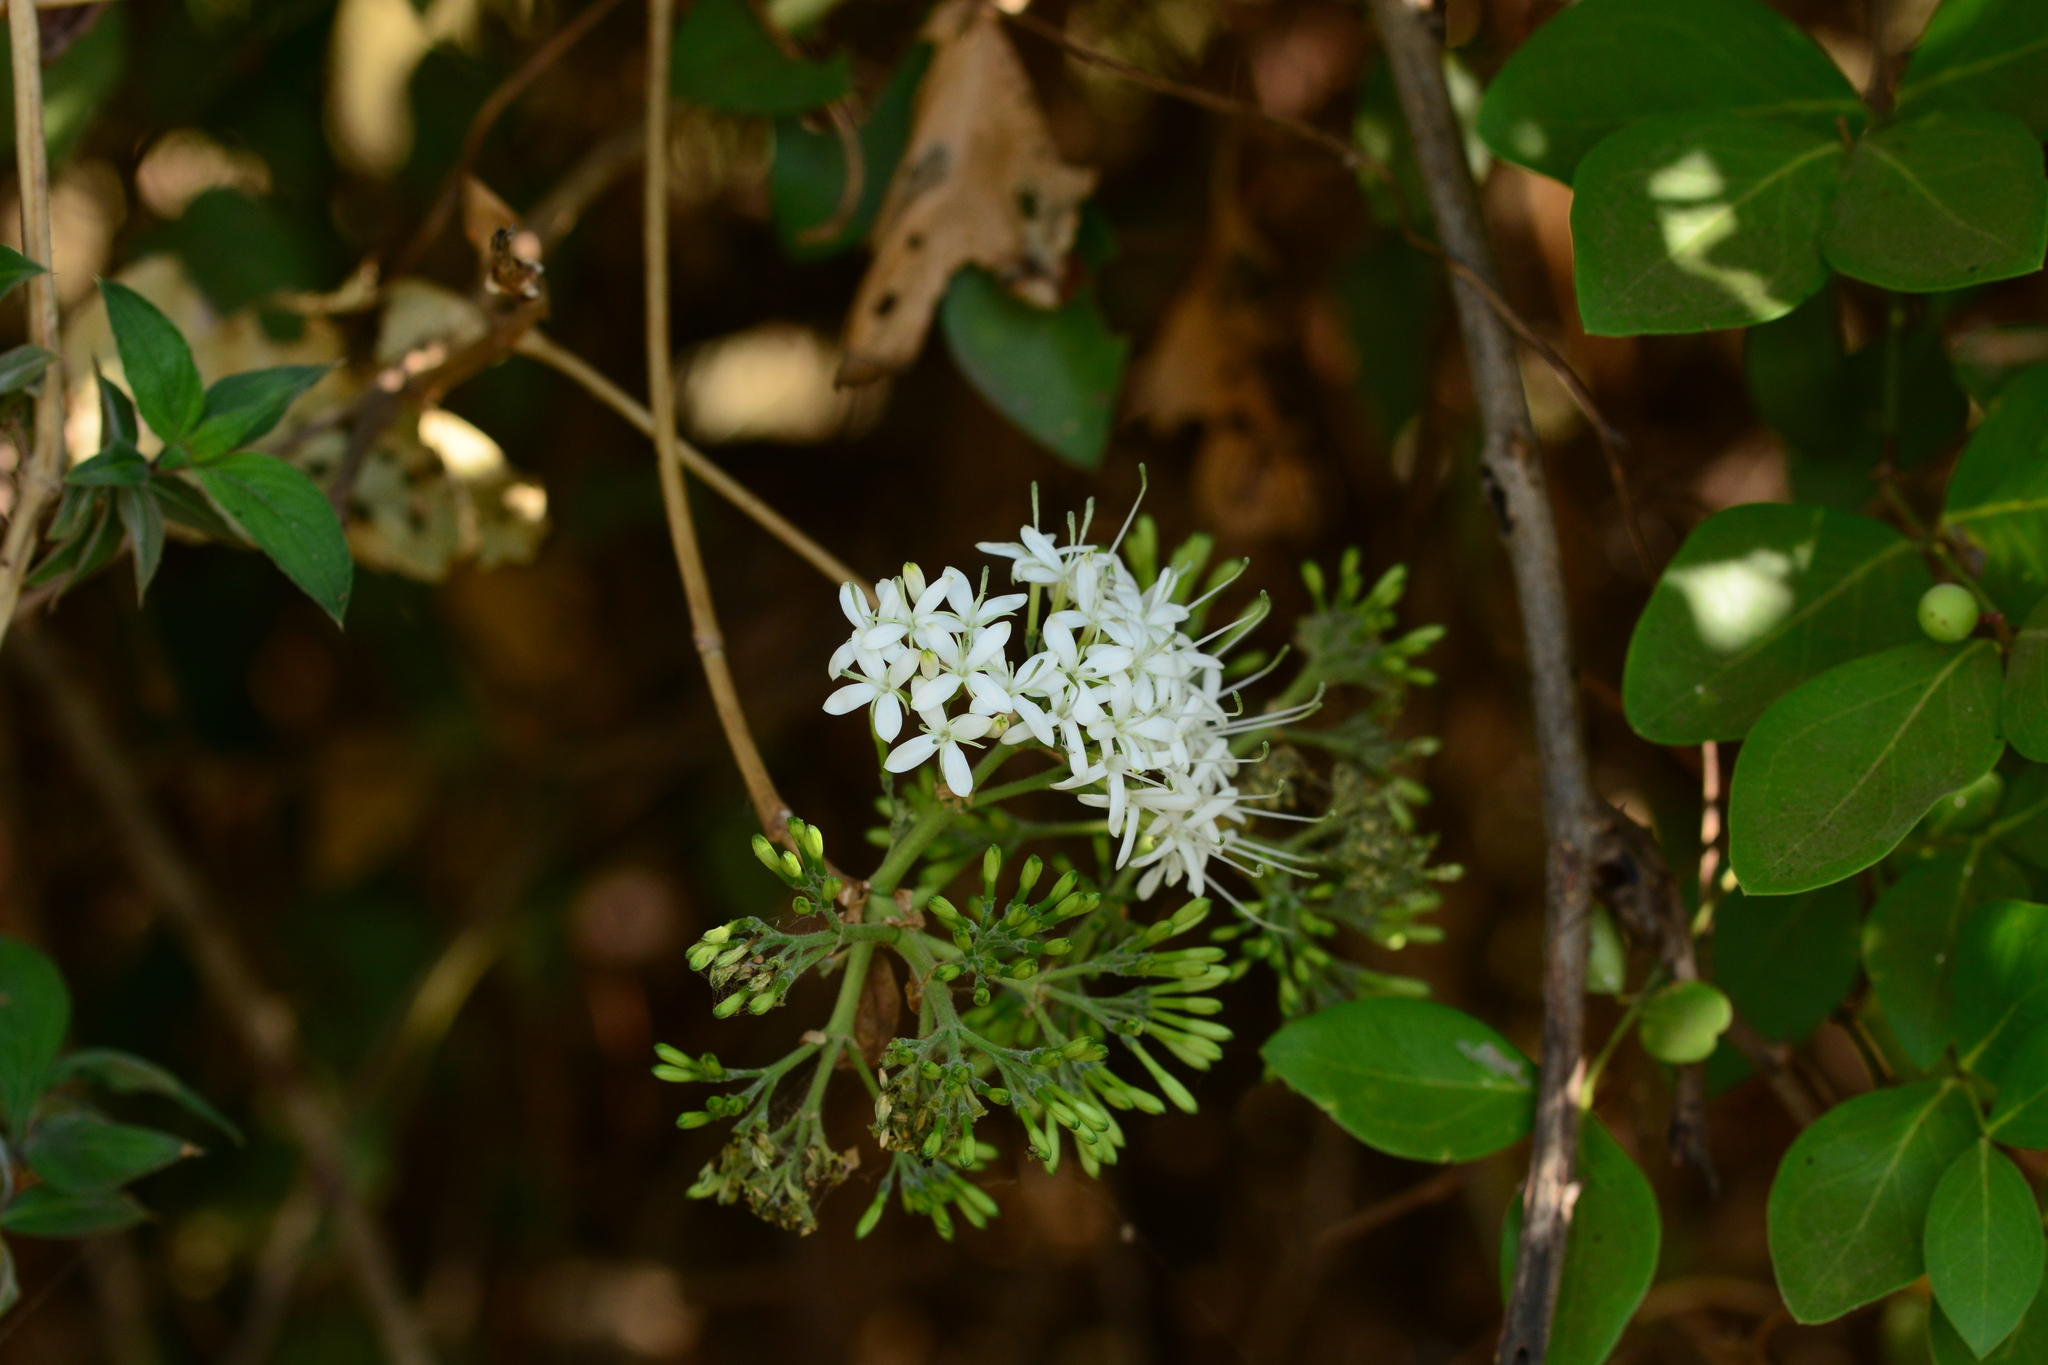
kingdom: Plantae
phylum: Tracheophyta
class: Magnoliopsida
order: Gentianales
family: Rubiaceae
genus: Pavetta
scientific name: Pavetta indica
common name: Indian pavetta
